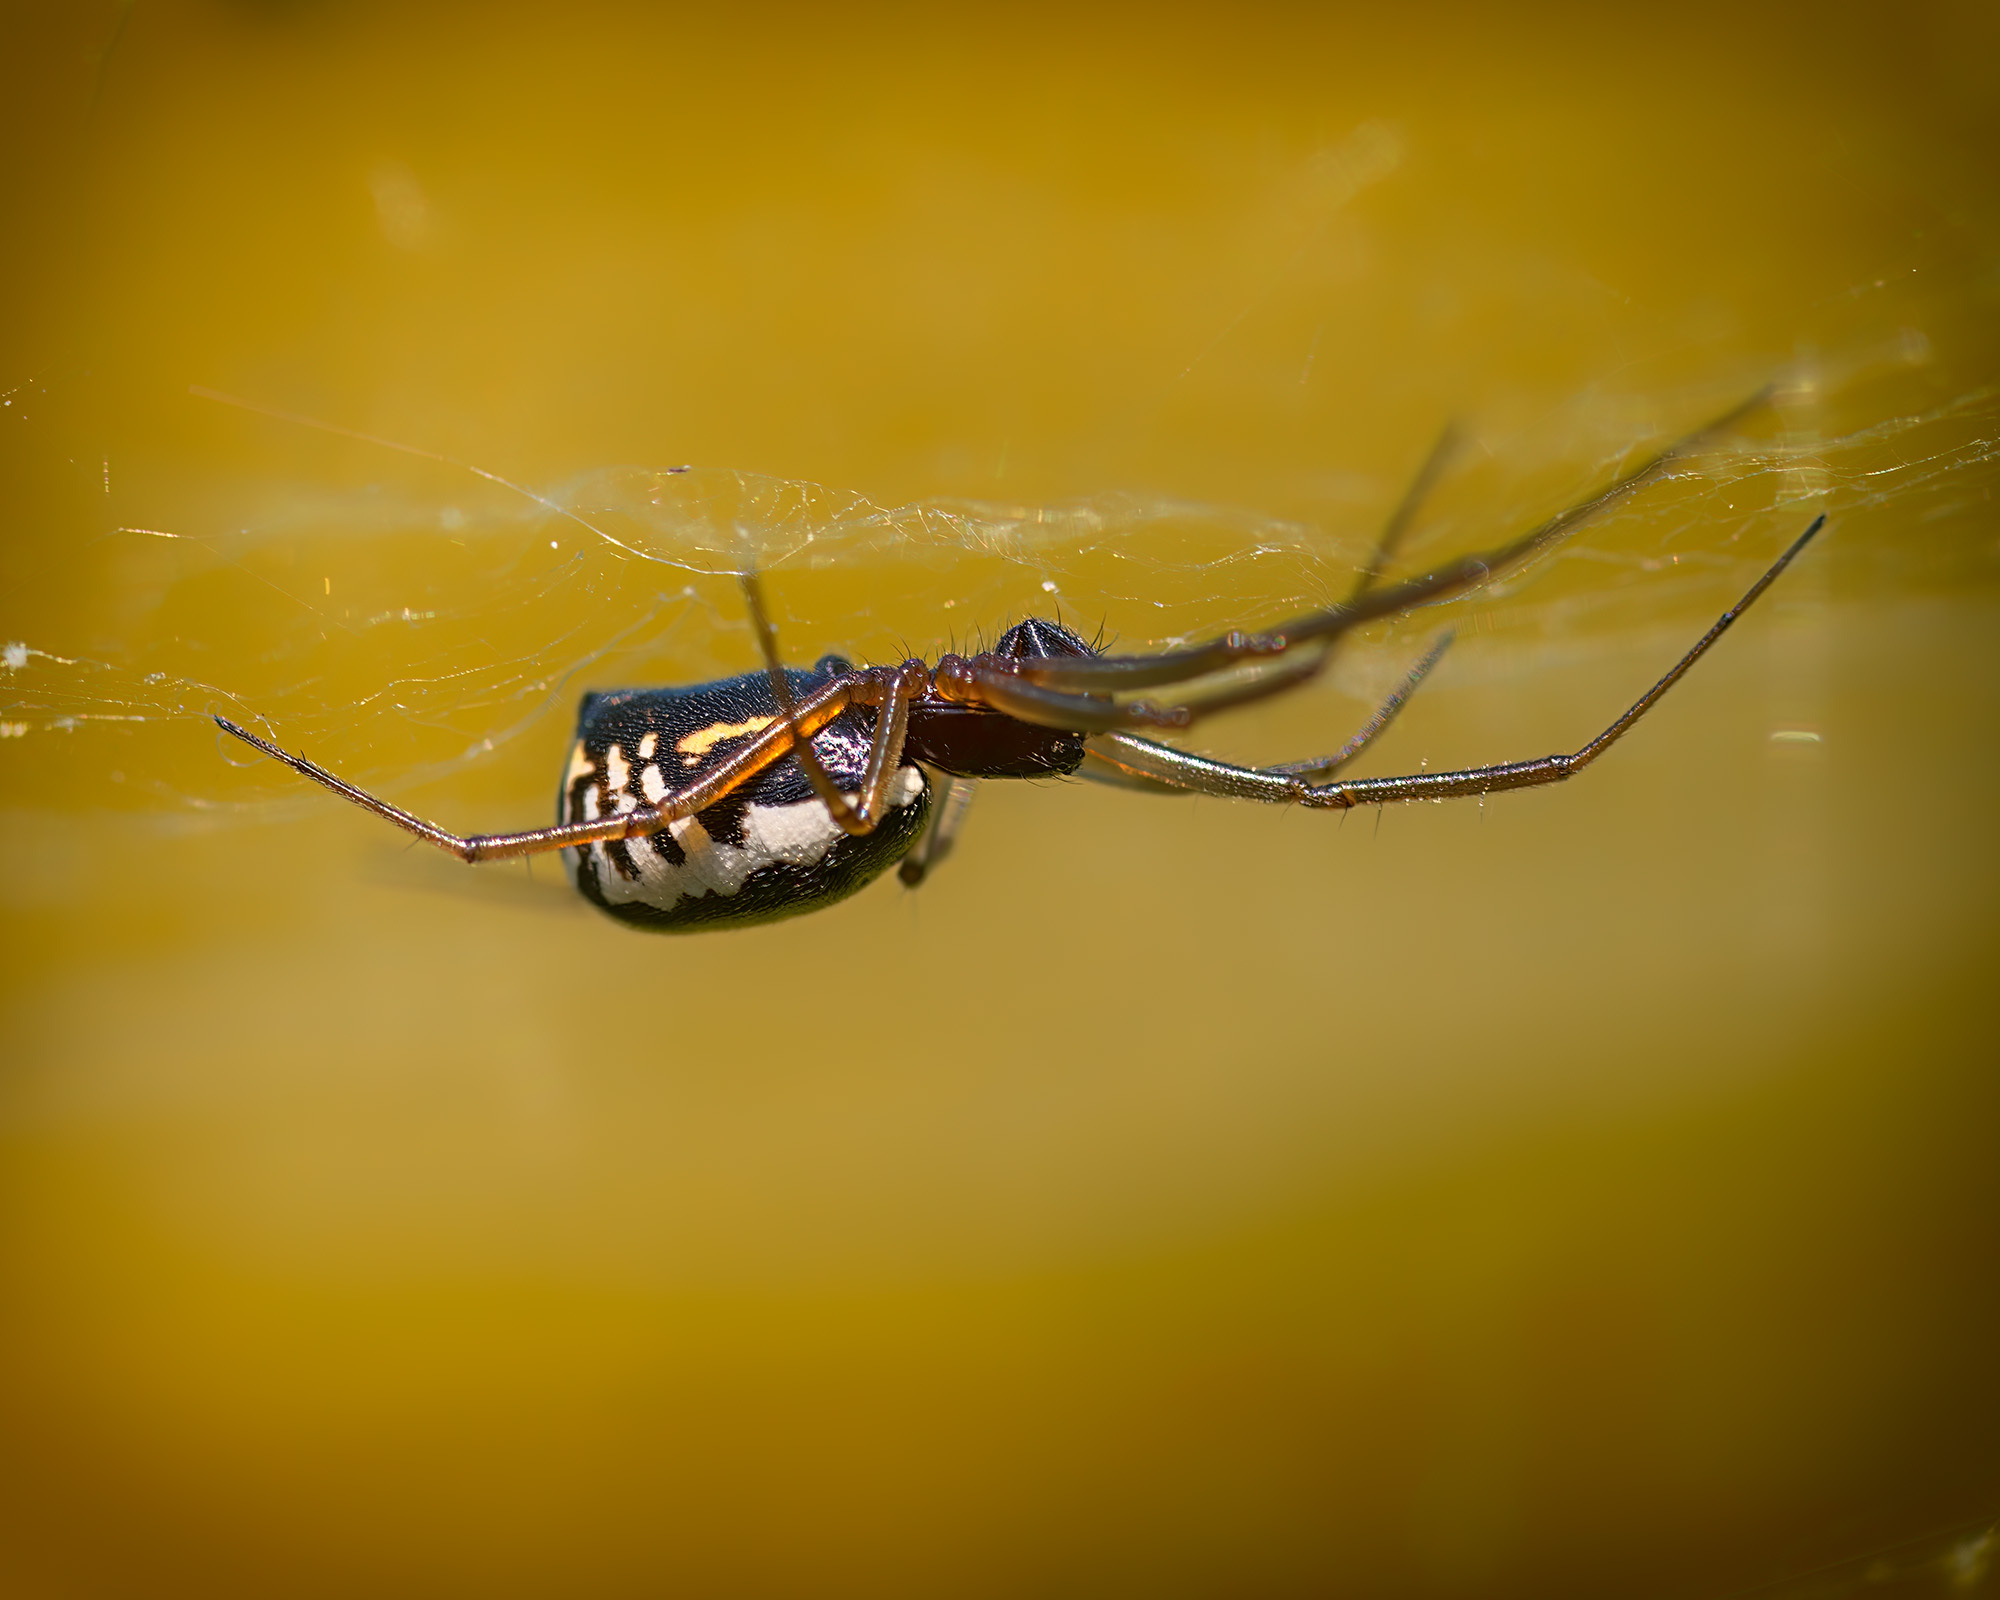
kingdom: Animalia
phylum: Arthropoda
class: Arachnida
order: Araneae
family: Linyphiidae
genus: Frontinellina
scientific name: Frontinellina frutetorum
